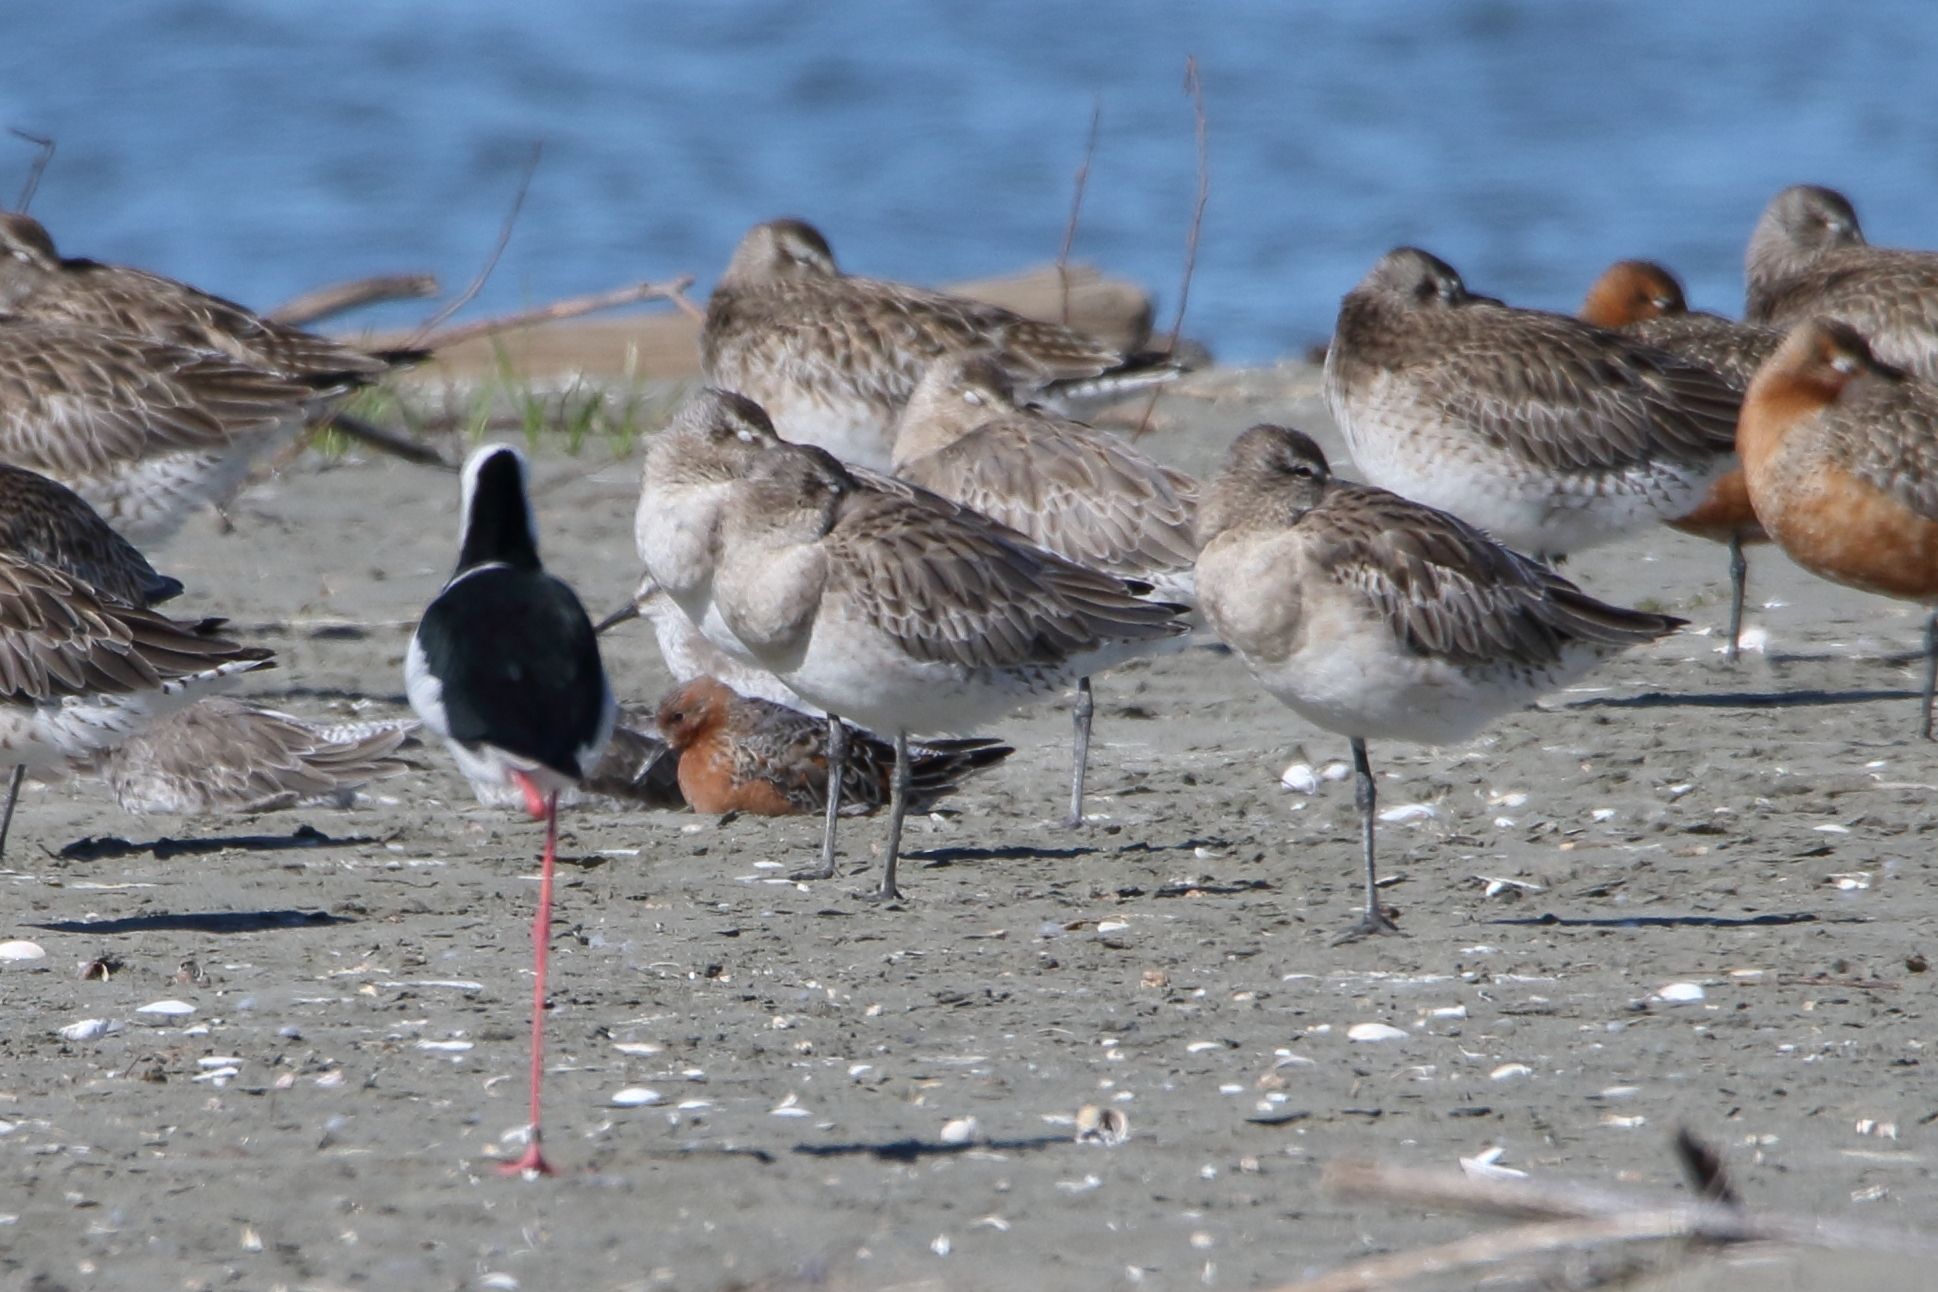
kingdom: Animalia
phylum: Chordata
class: Aves
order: Charadriiformes
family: Scolopacidae
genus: Calidris
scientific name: Calidris canutus
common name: Red knot
